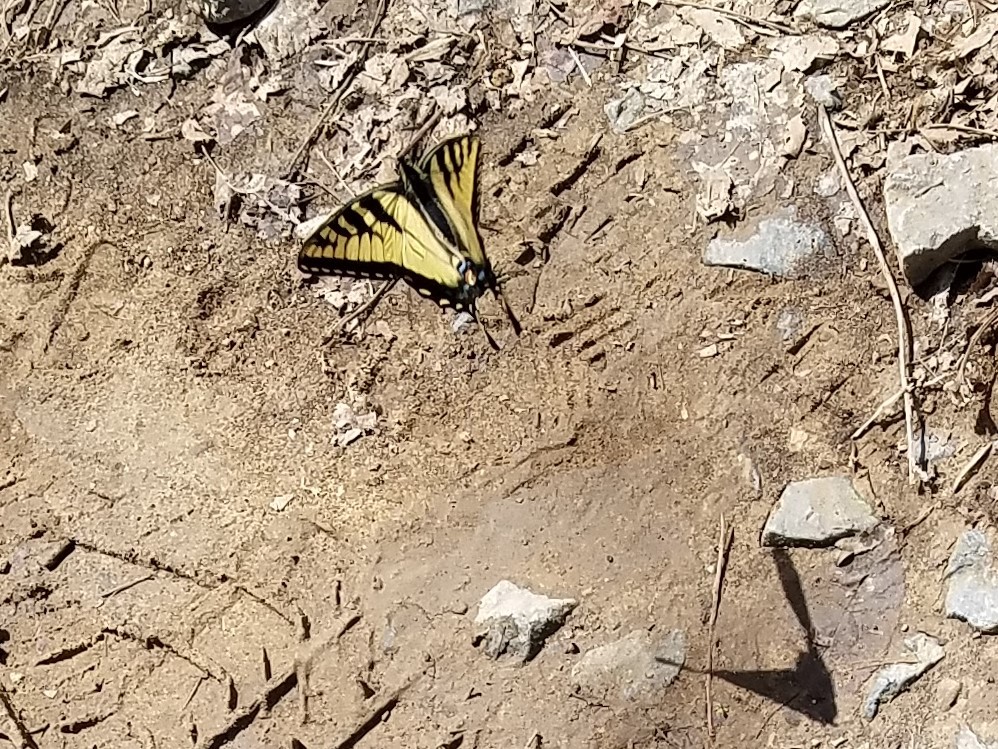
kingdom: Animalia
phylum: Arthropoda
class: Insecta
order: Lepidoptera
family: Papilionidae
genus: Papilio
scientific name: Papilio glaucus
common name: Tiger swallowtail
